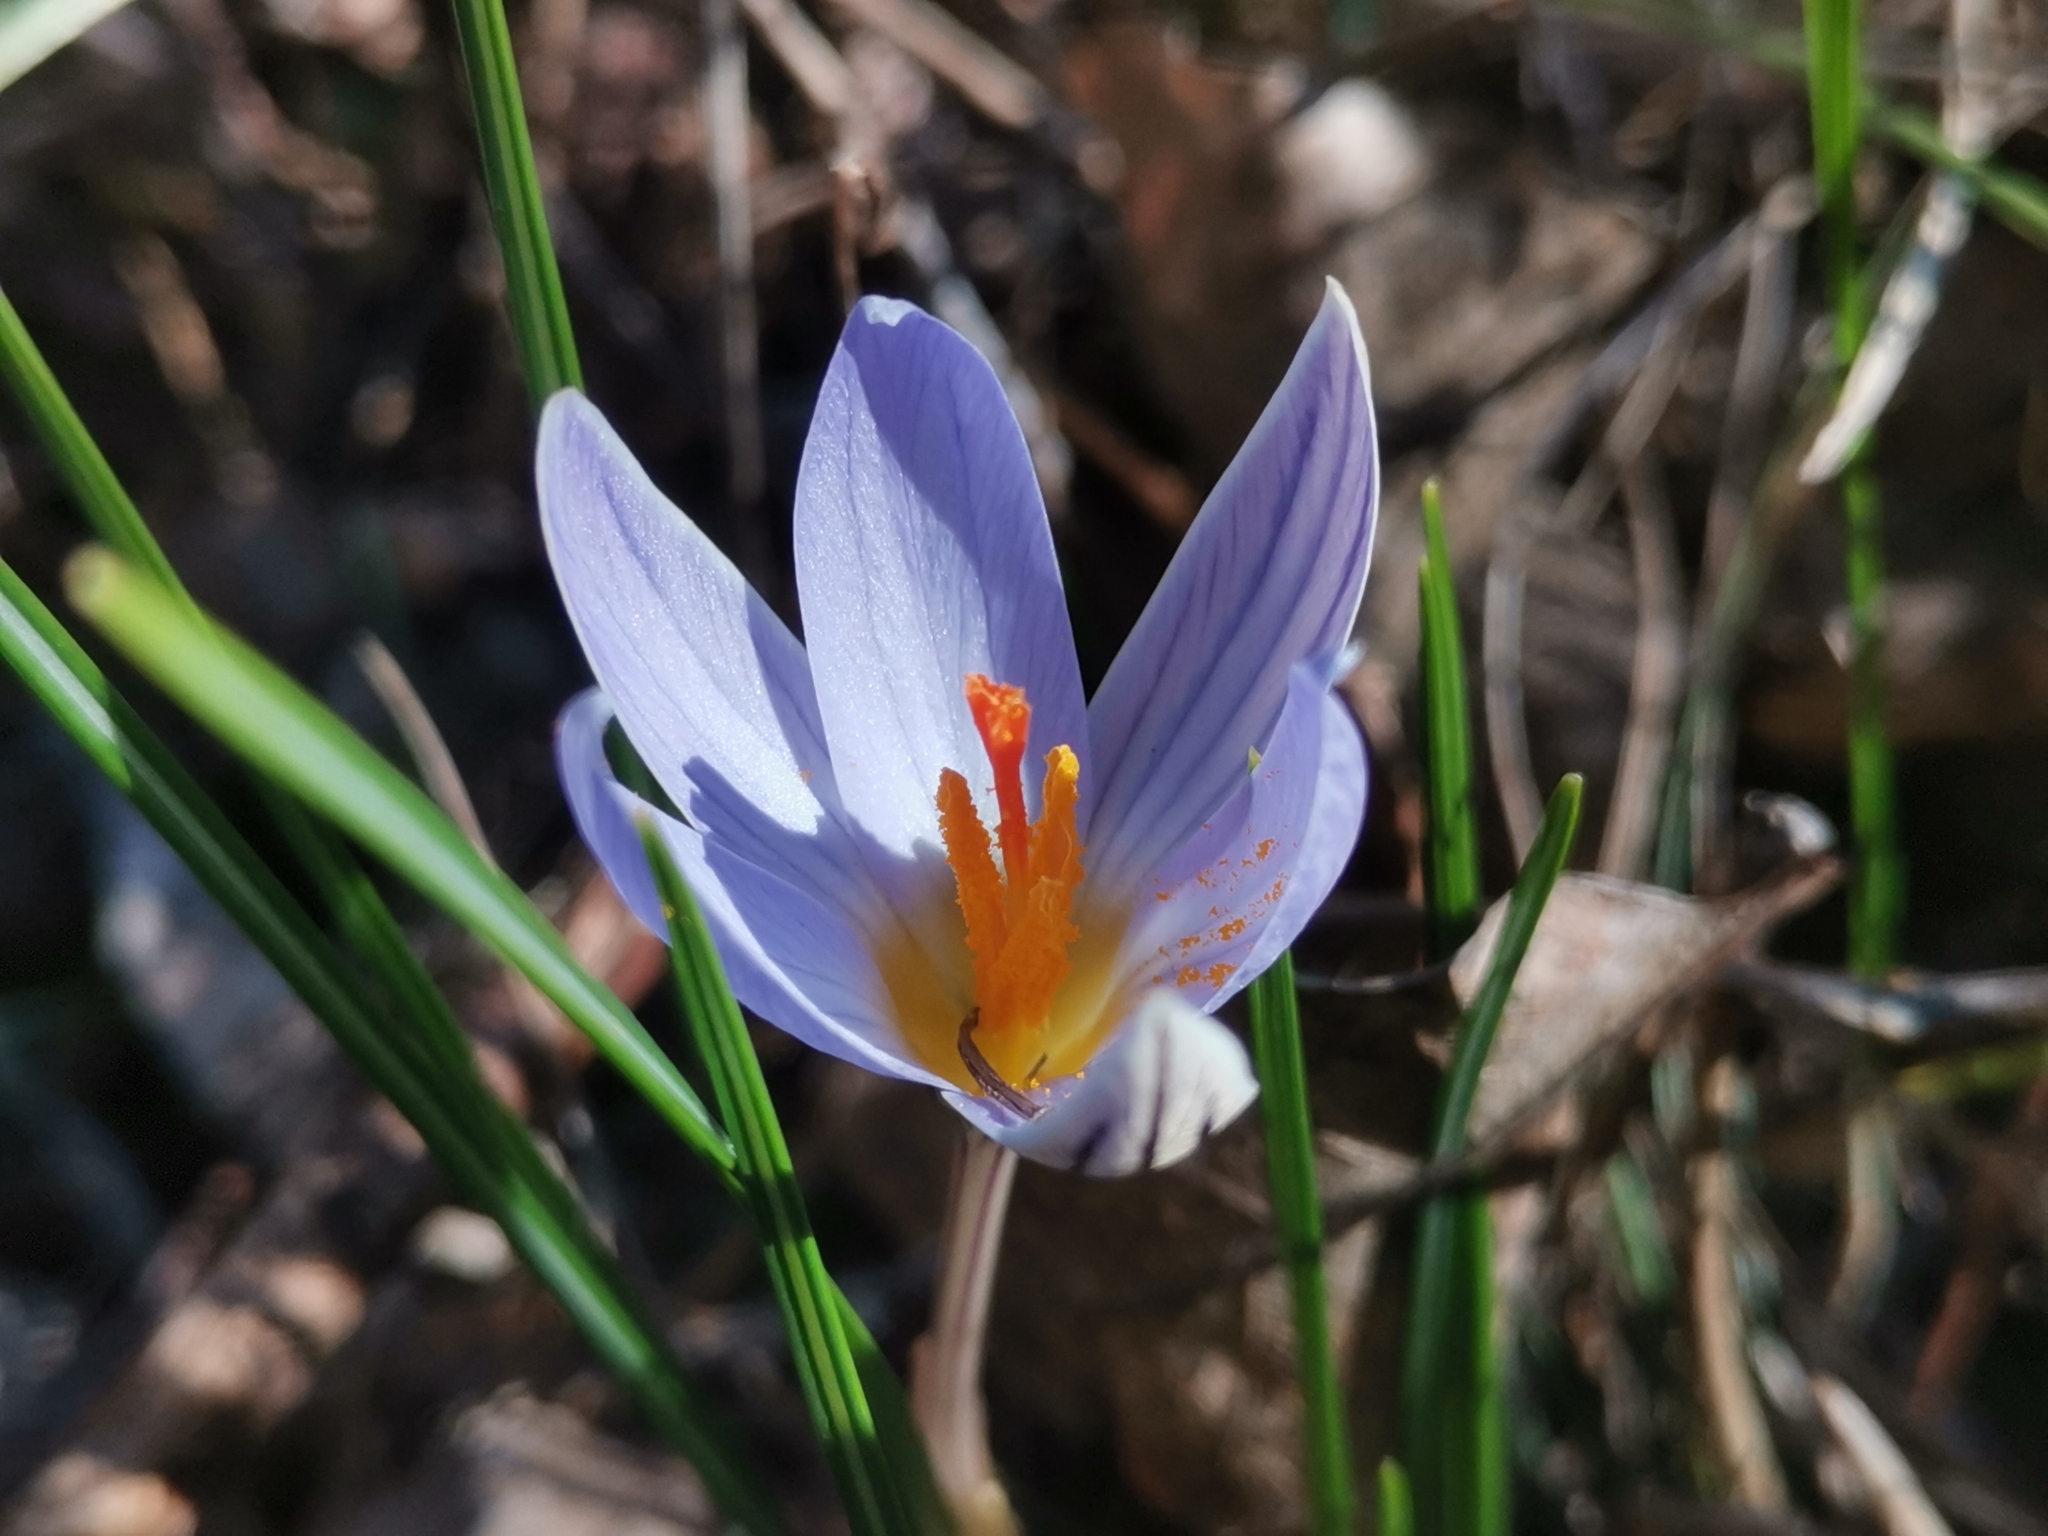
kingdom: Plantae
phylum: Tracheophyta
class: Liliopsida
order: Asparagales
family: Iridaceae
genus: Crocus
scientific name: Crocus variegatus
